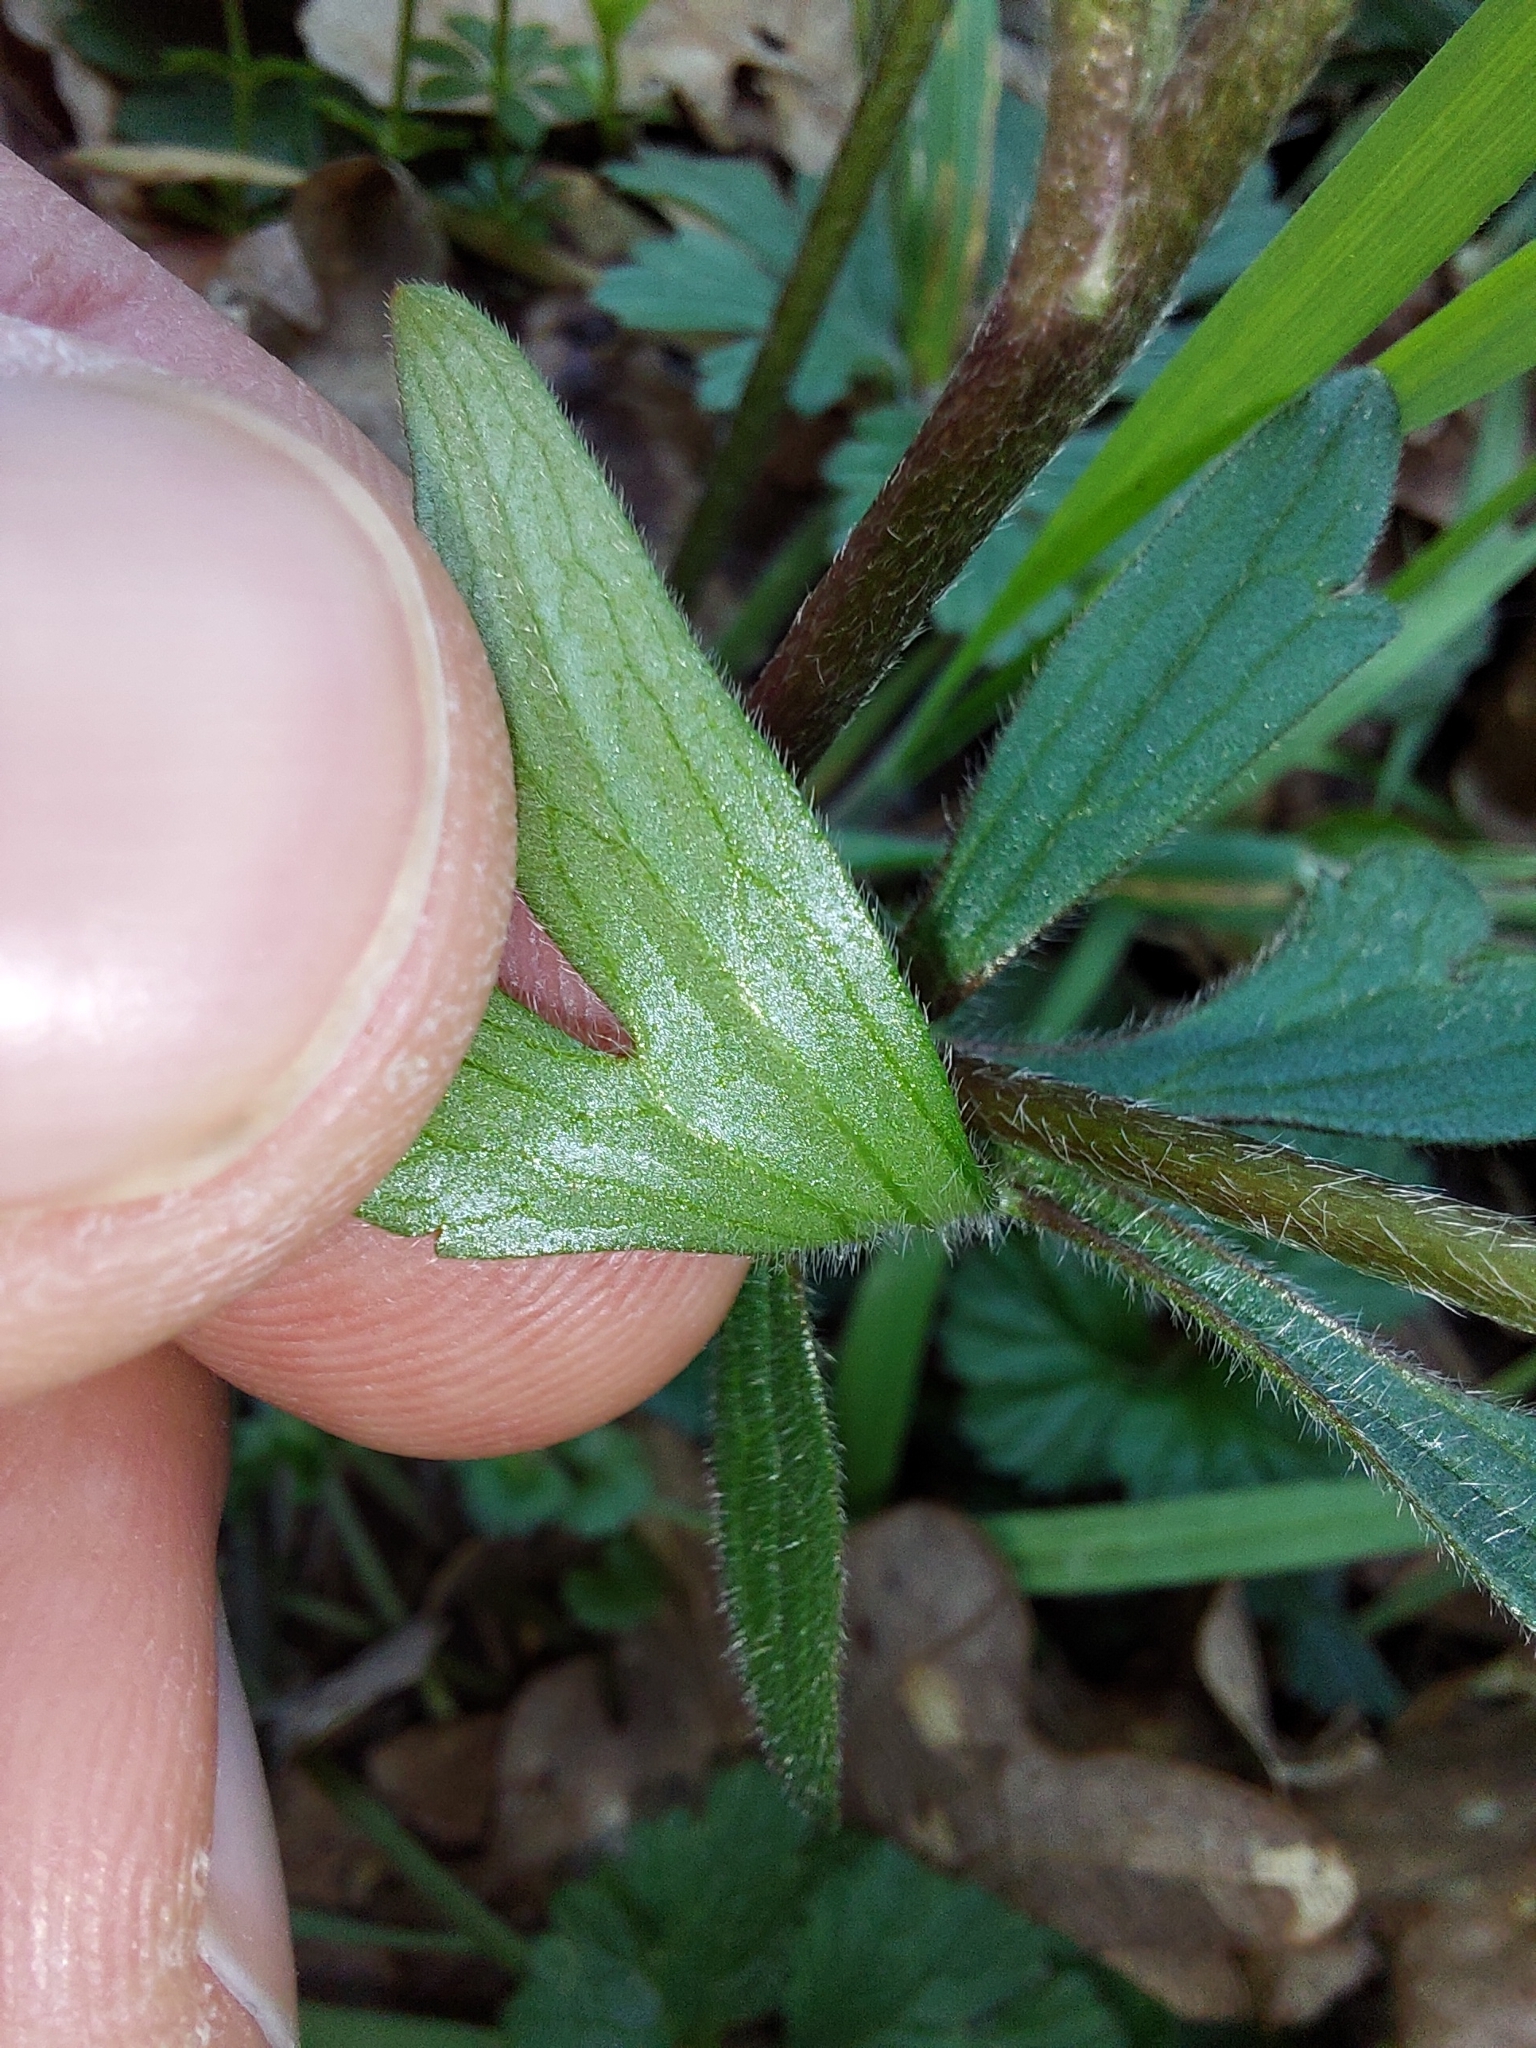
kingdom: Plantae
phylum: Tracheophyta
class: Magnoliopsida
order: Ranunculales
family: Ranunculaceae
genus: Ranunculus
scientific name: Ranunculus bulbosus
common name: Bulbous buttercup
